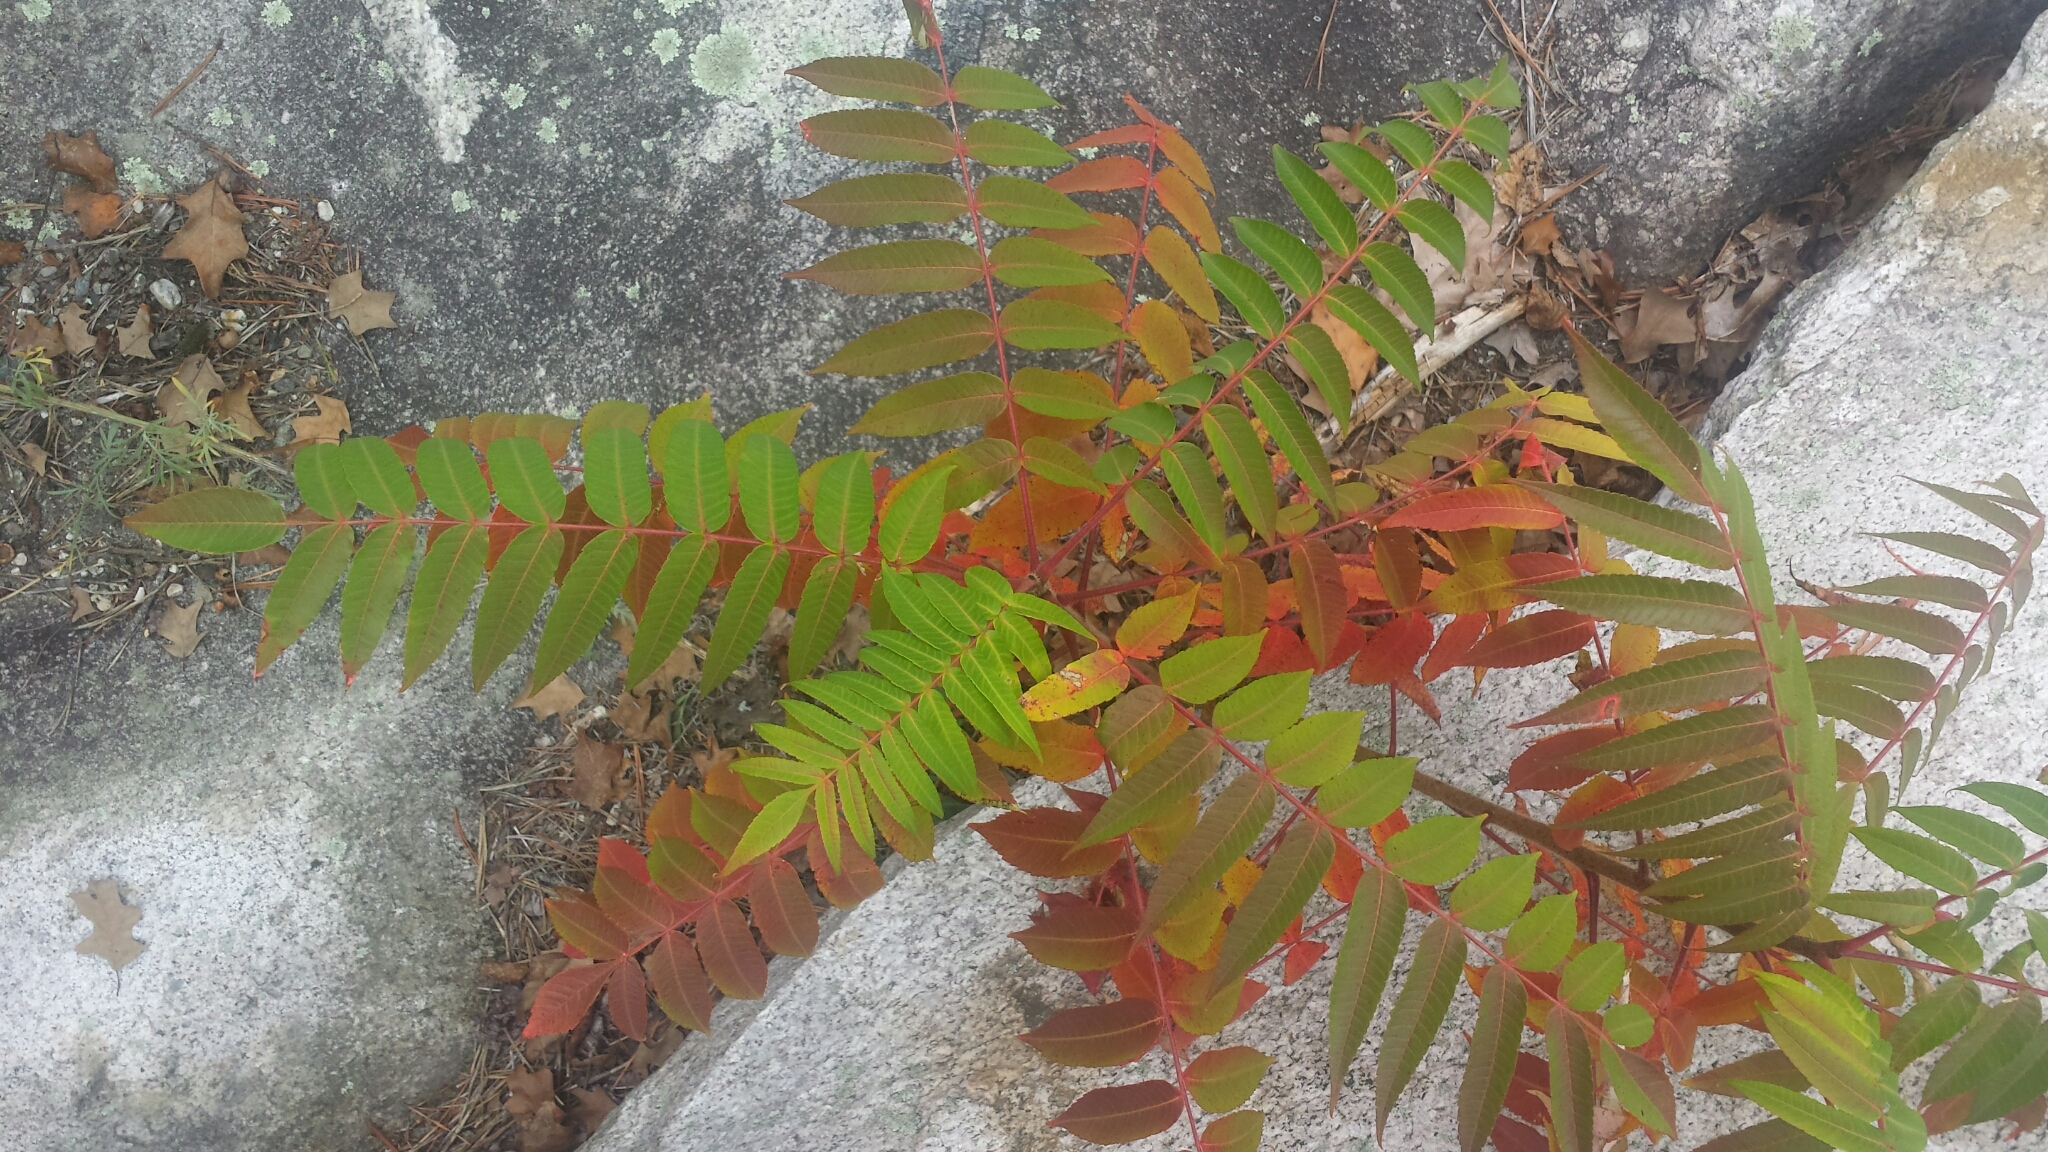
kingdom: Plantae
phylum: Tracheophyta
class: Magnoliopsida
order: Sapindales
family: Anacardiaceae
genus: Rhus
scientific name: Rhus typhina
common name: Staghorn sumac
